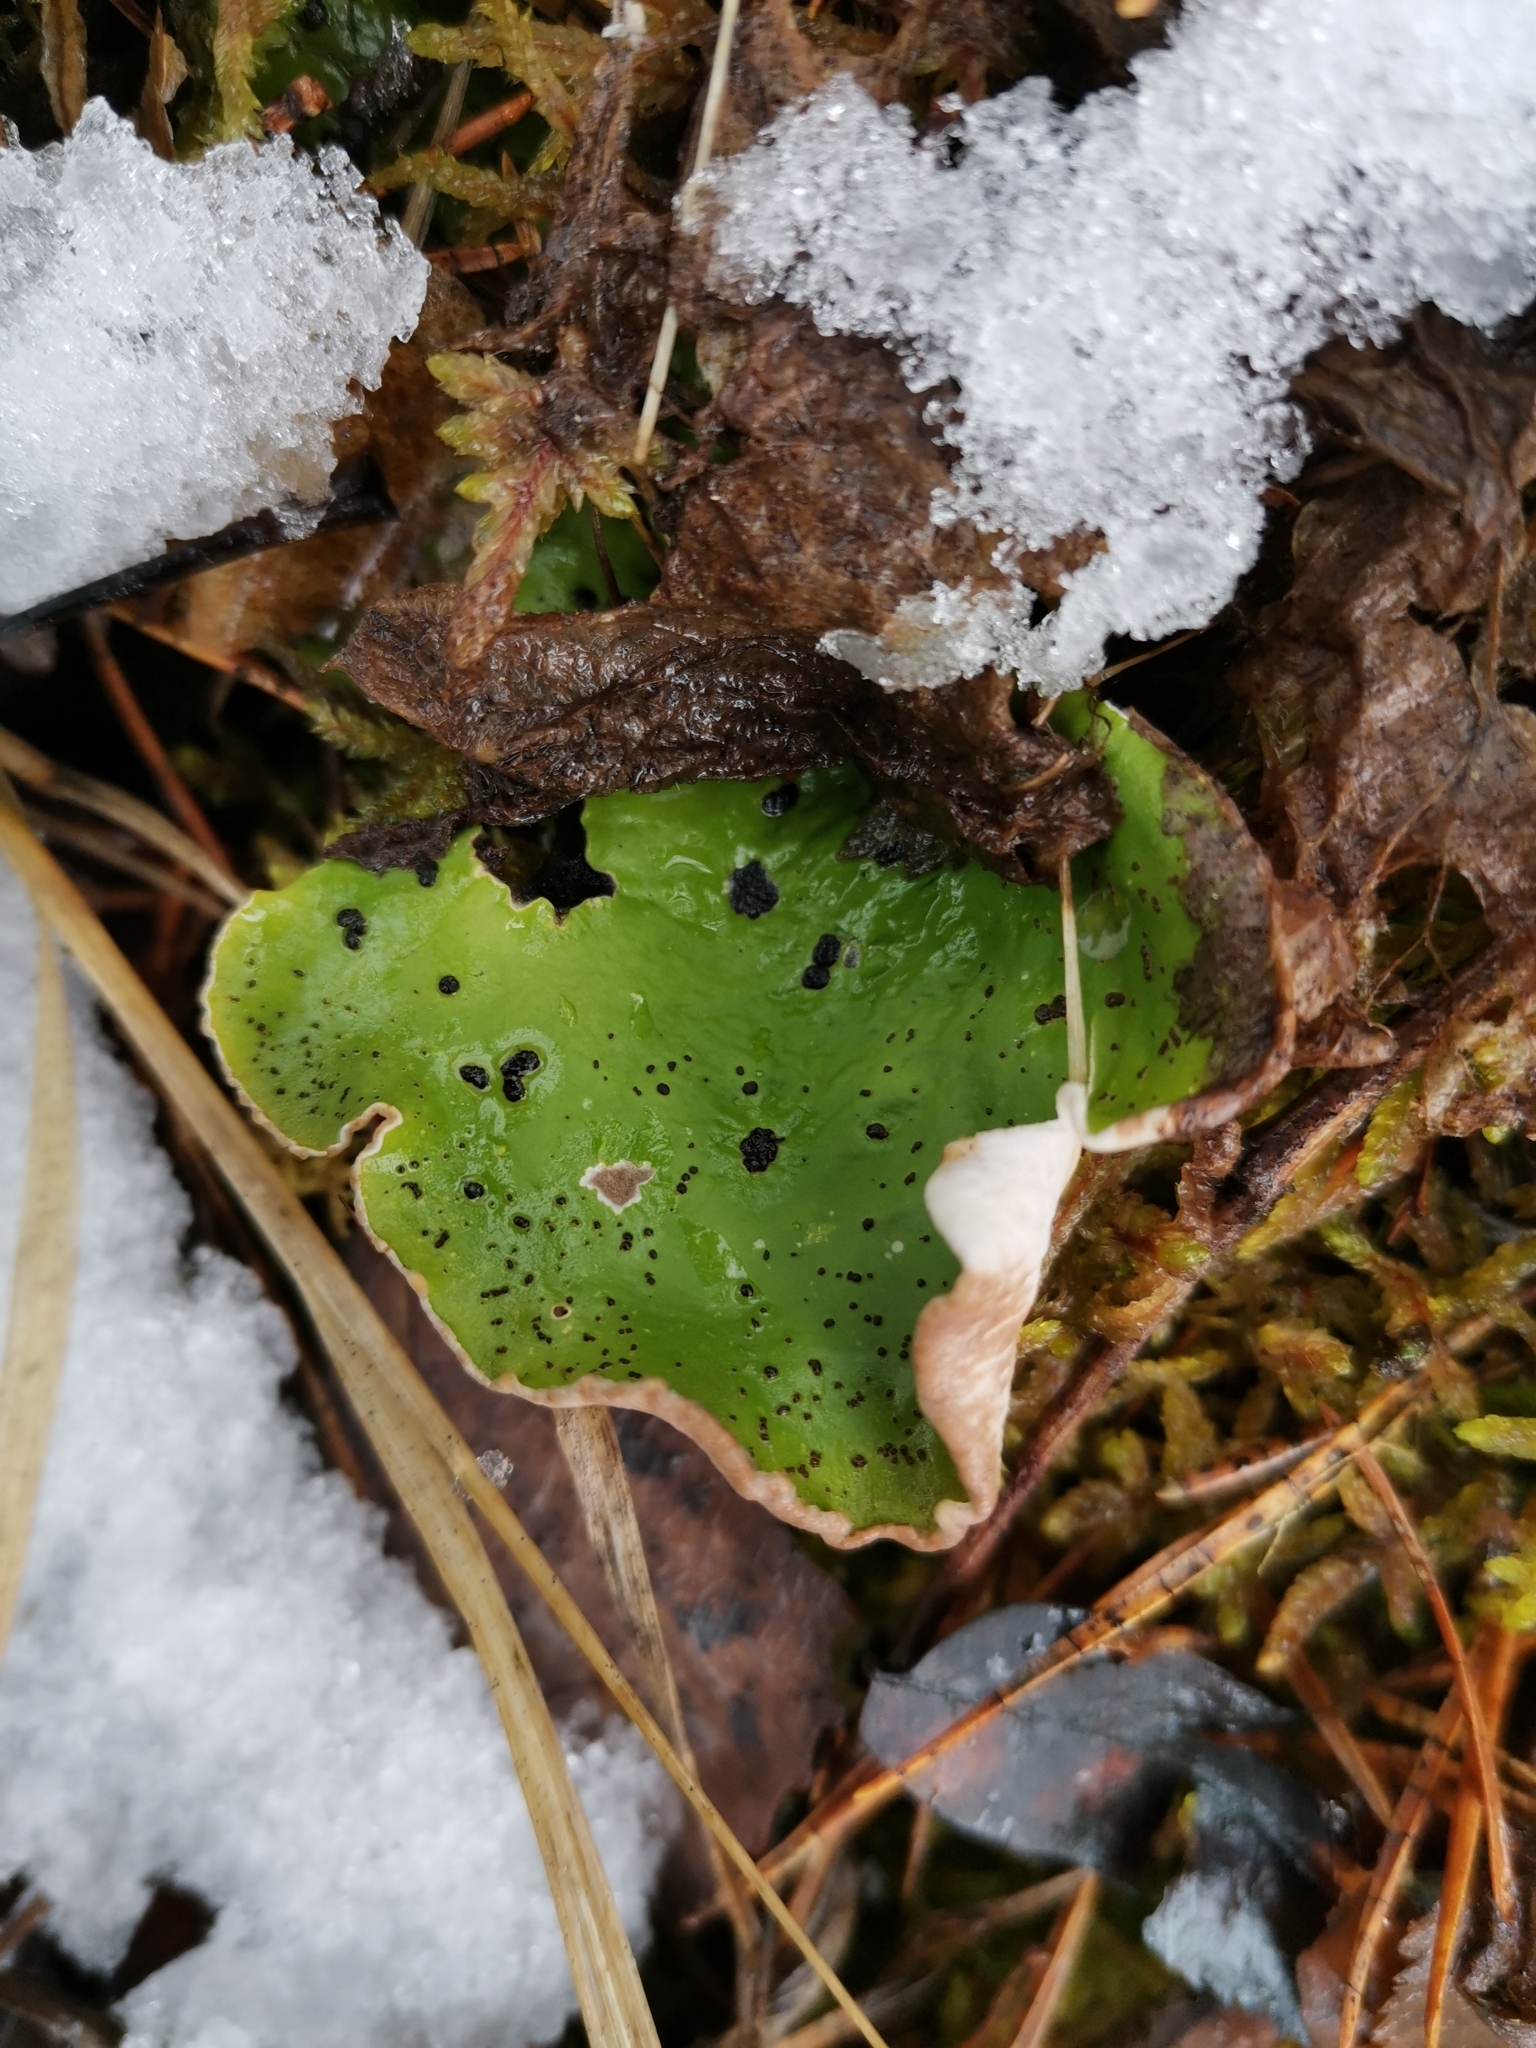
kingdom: Fungi
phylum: Ascomycota
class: Lecanoromycetes
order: Peltigerales
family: Peltigeraceae
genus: Peltigera
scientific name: Peltigera aphthosa
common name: Common freckle pelt lichen
